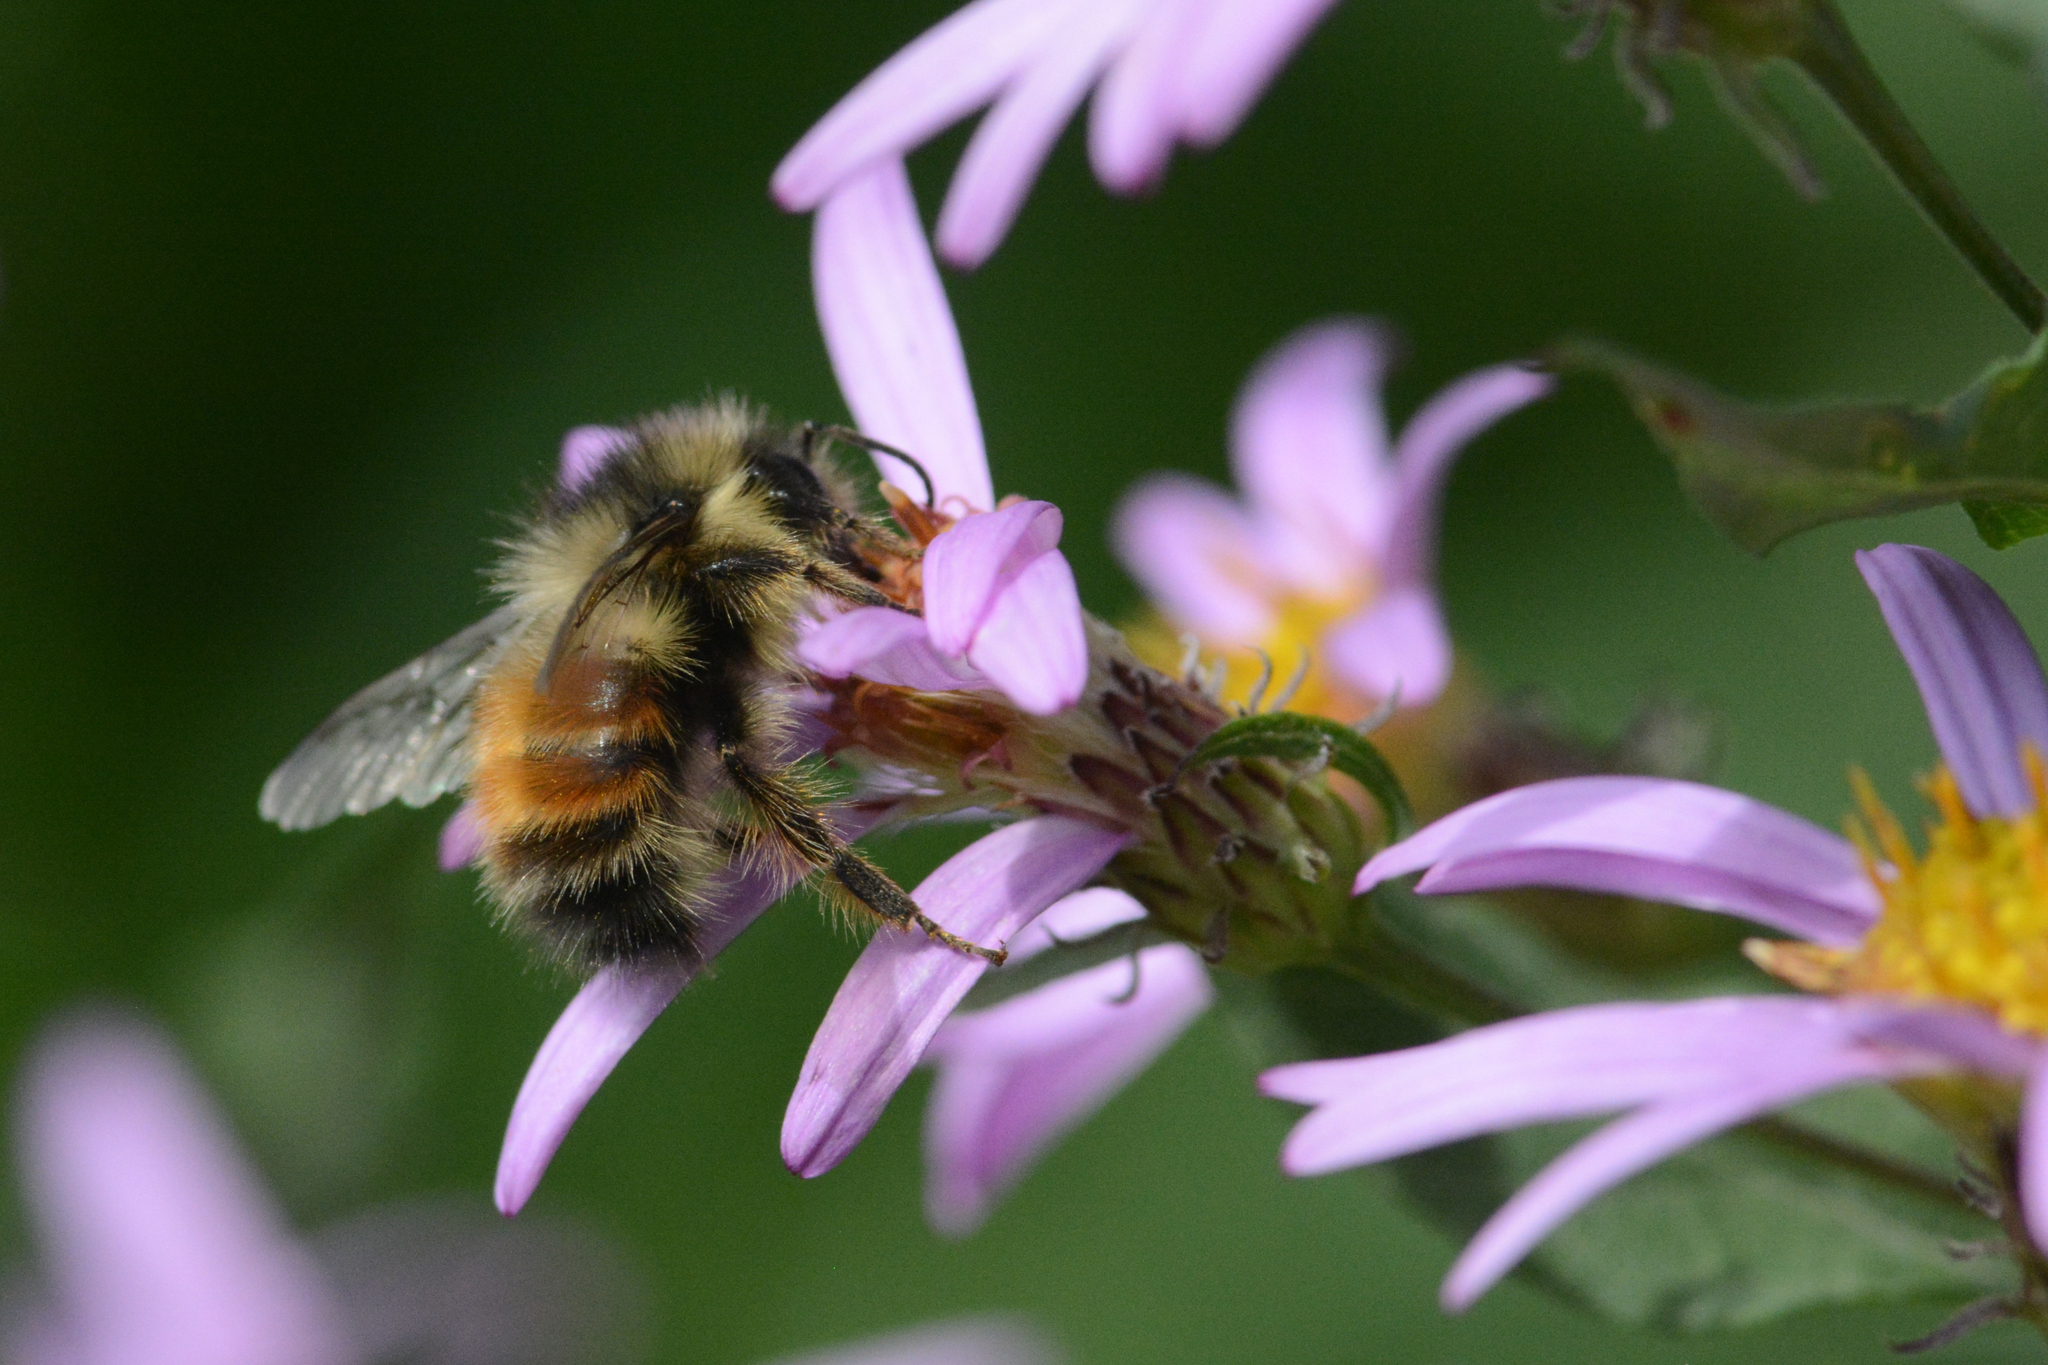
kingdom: Animalia
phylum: Arthropoda
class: Insecta
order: Hymenoptera
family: Apidae
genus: Bombus
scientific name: Bombus melanopygus
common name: Black tail bumble bee
